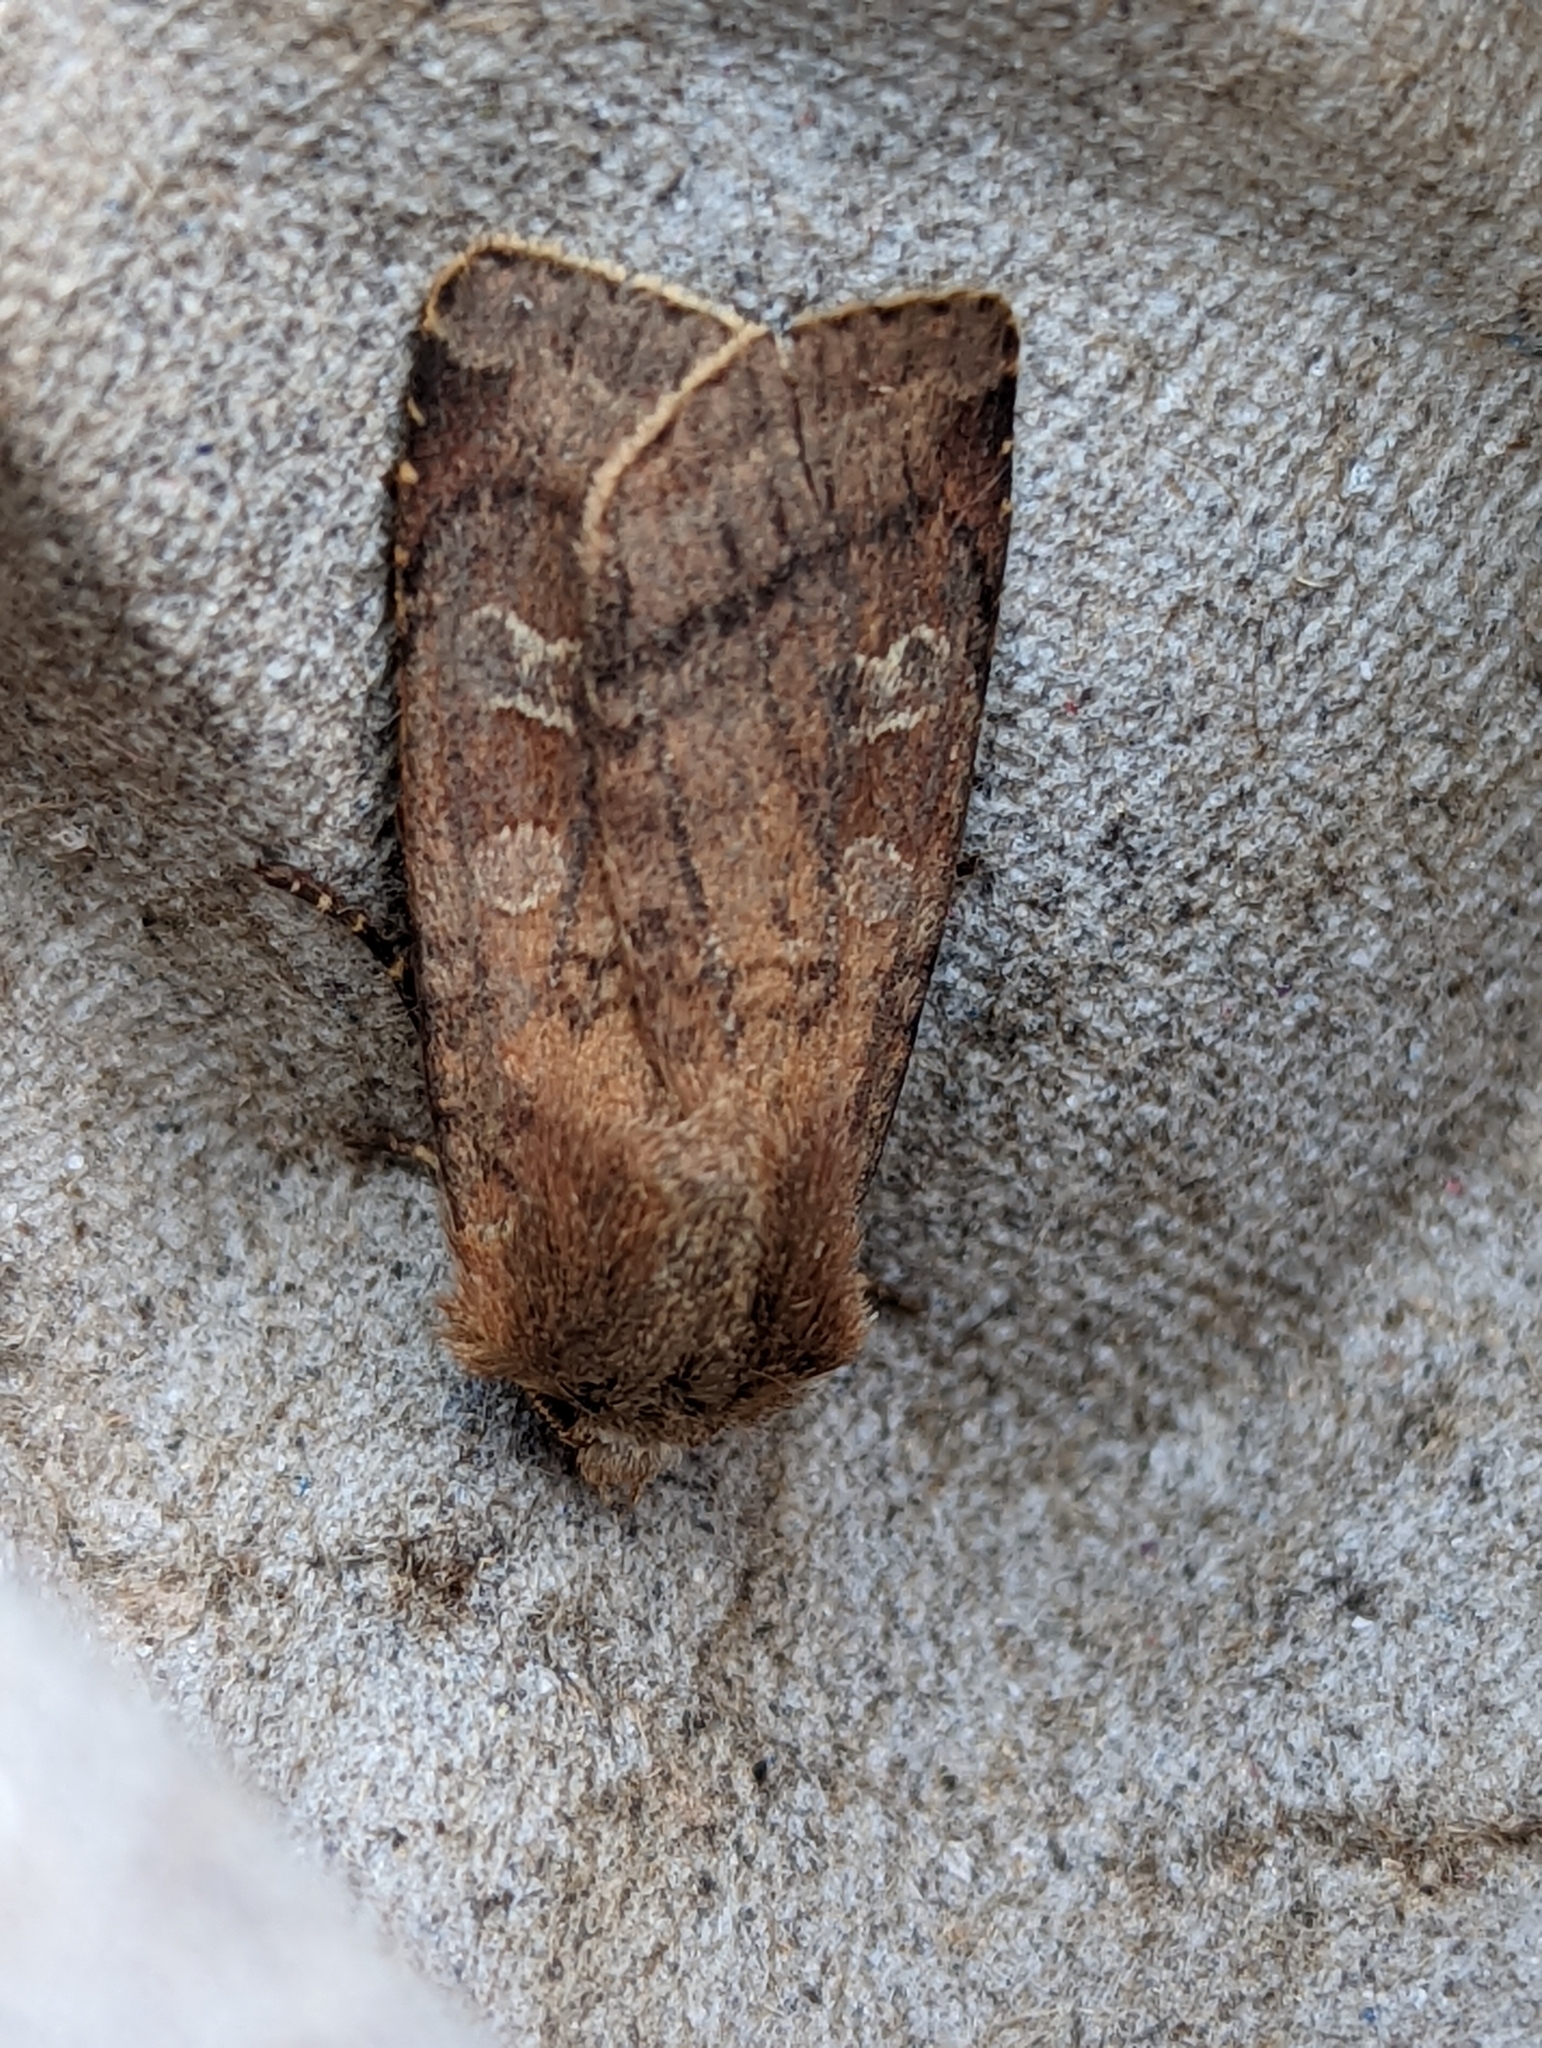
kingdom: Animalia
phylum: Arthropoda
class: Insecta
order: Lepidoptera
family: Noctuidae
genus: Diarsia
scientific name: Diarsia rubi
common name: Small square-spot
